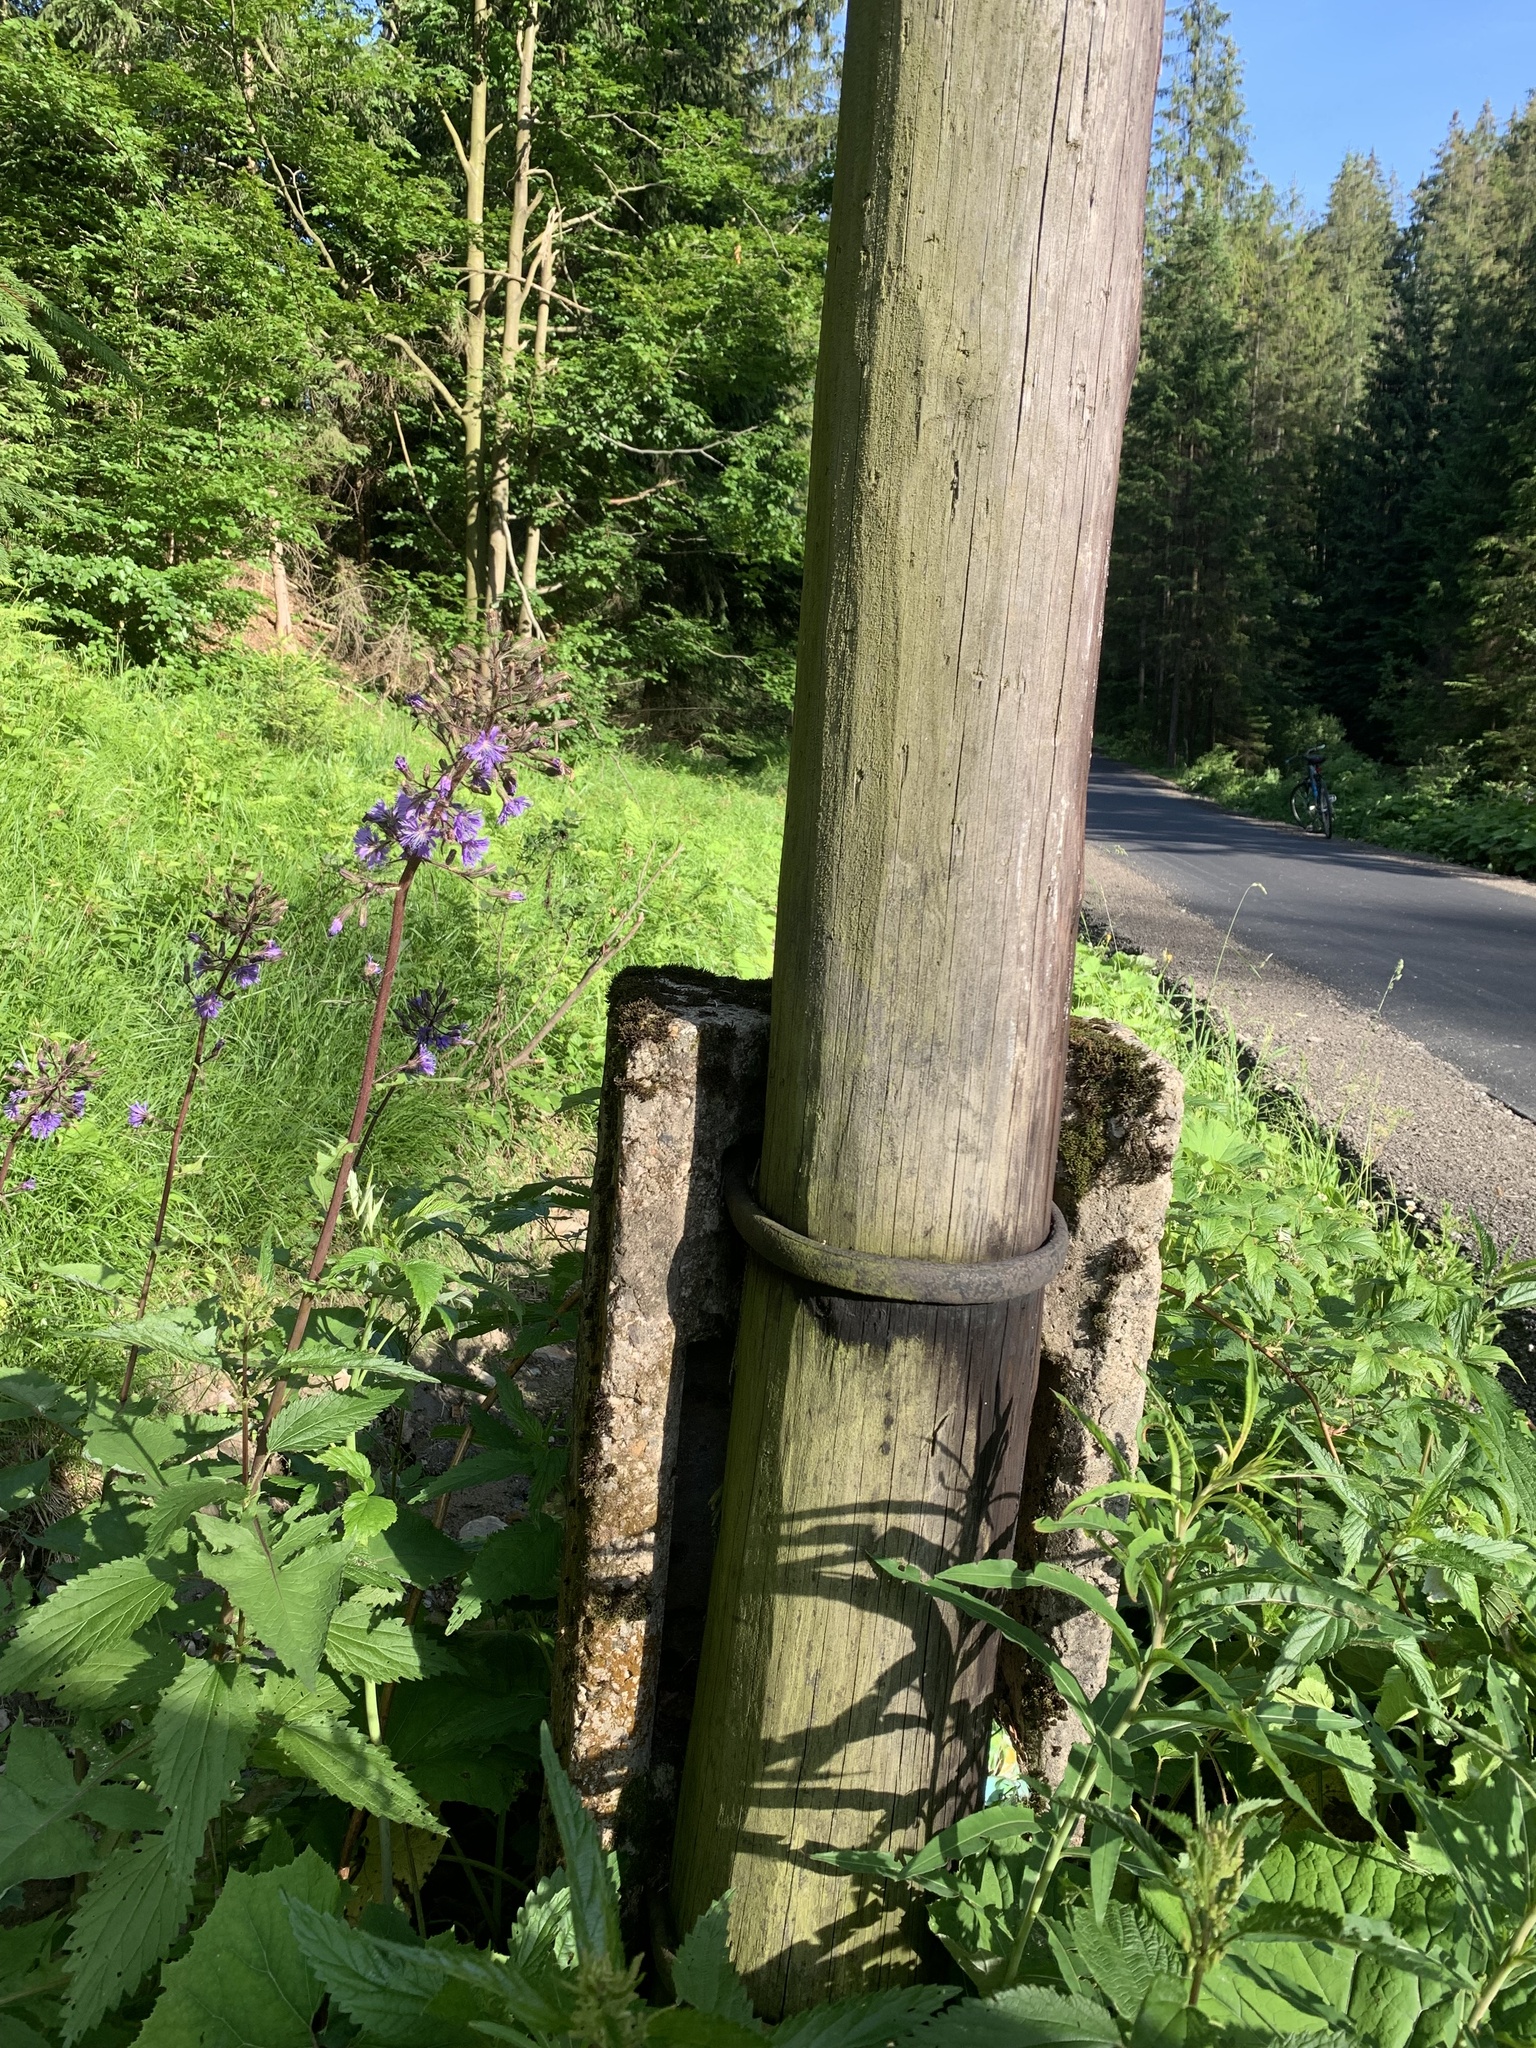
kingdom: Plantae
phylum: Tracheophyta
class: Magnoliopsida
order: Asterales
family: Asteraceae
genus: Cicerbita
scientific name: Cicerbita alpina
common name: Alpine blue-sow-thistle
